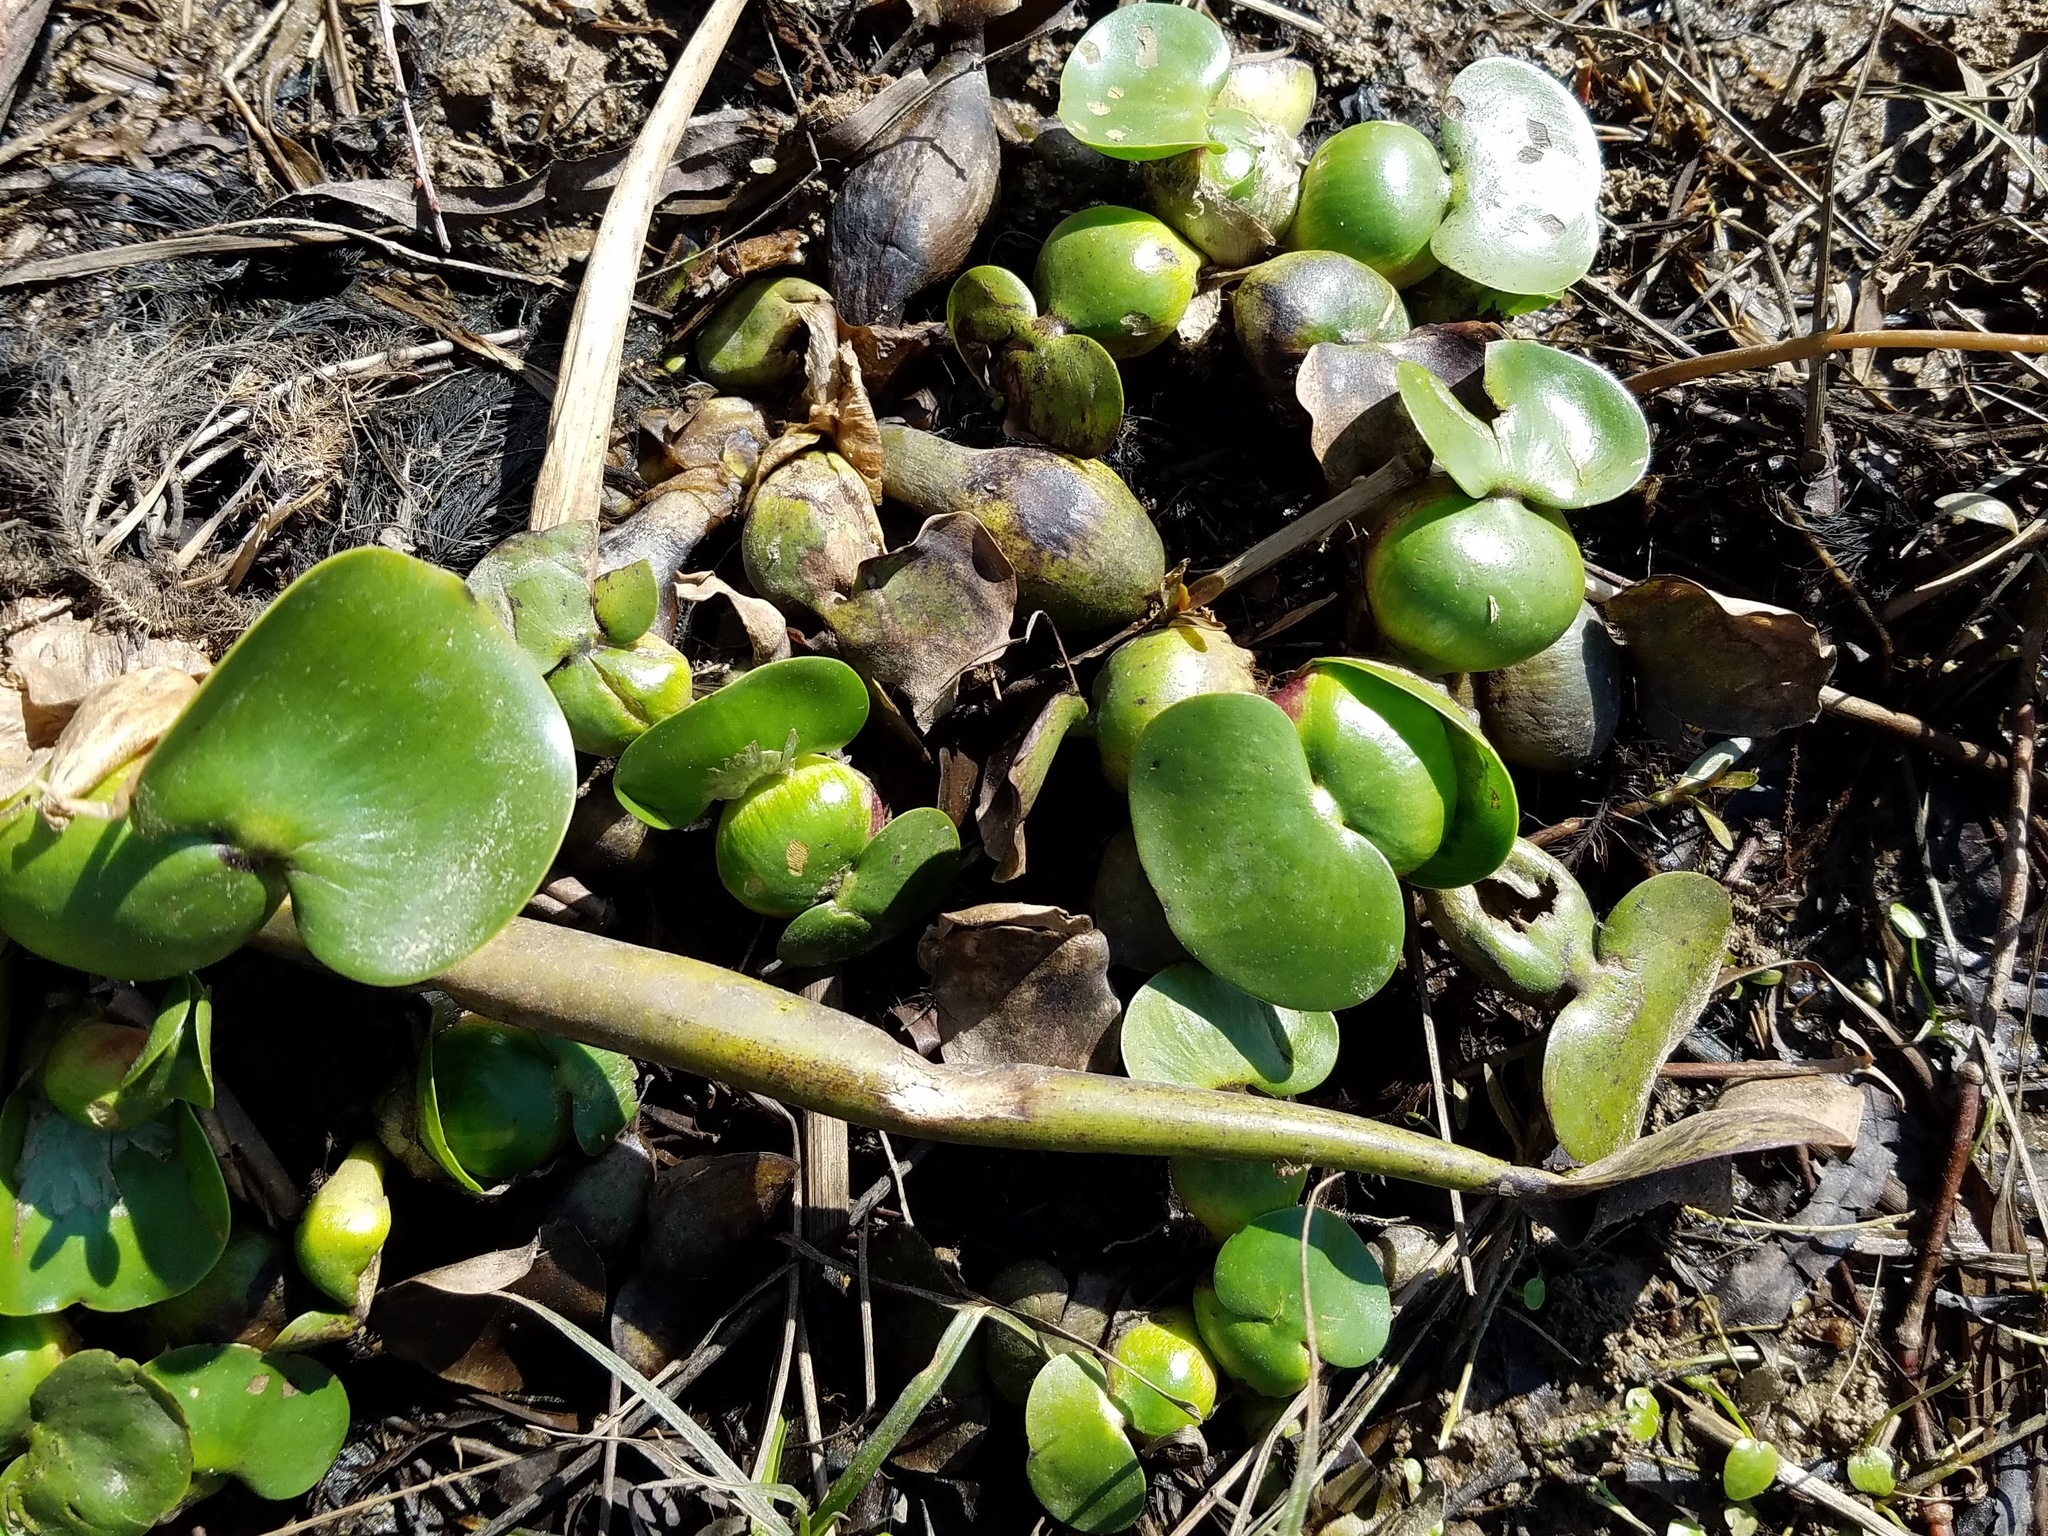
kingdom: Plantae
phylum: Tracheophyta
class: Liliopsida
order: Commelinales
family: Pontederiaceae
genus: Pontederia
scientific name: Pontederia crassipes
